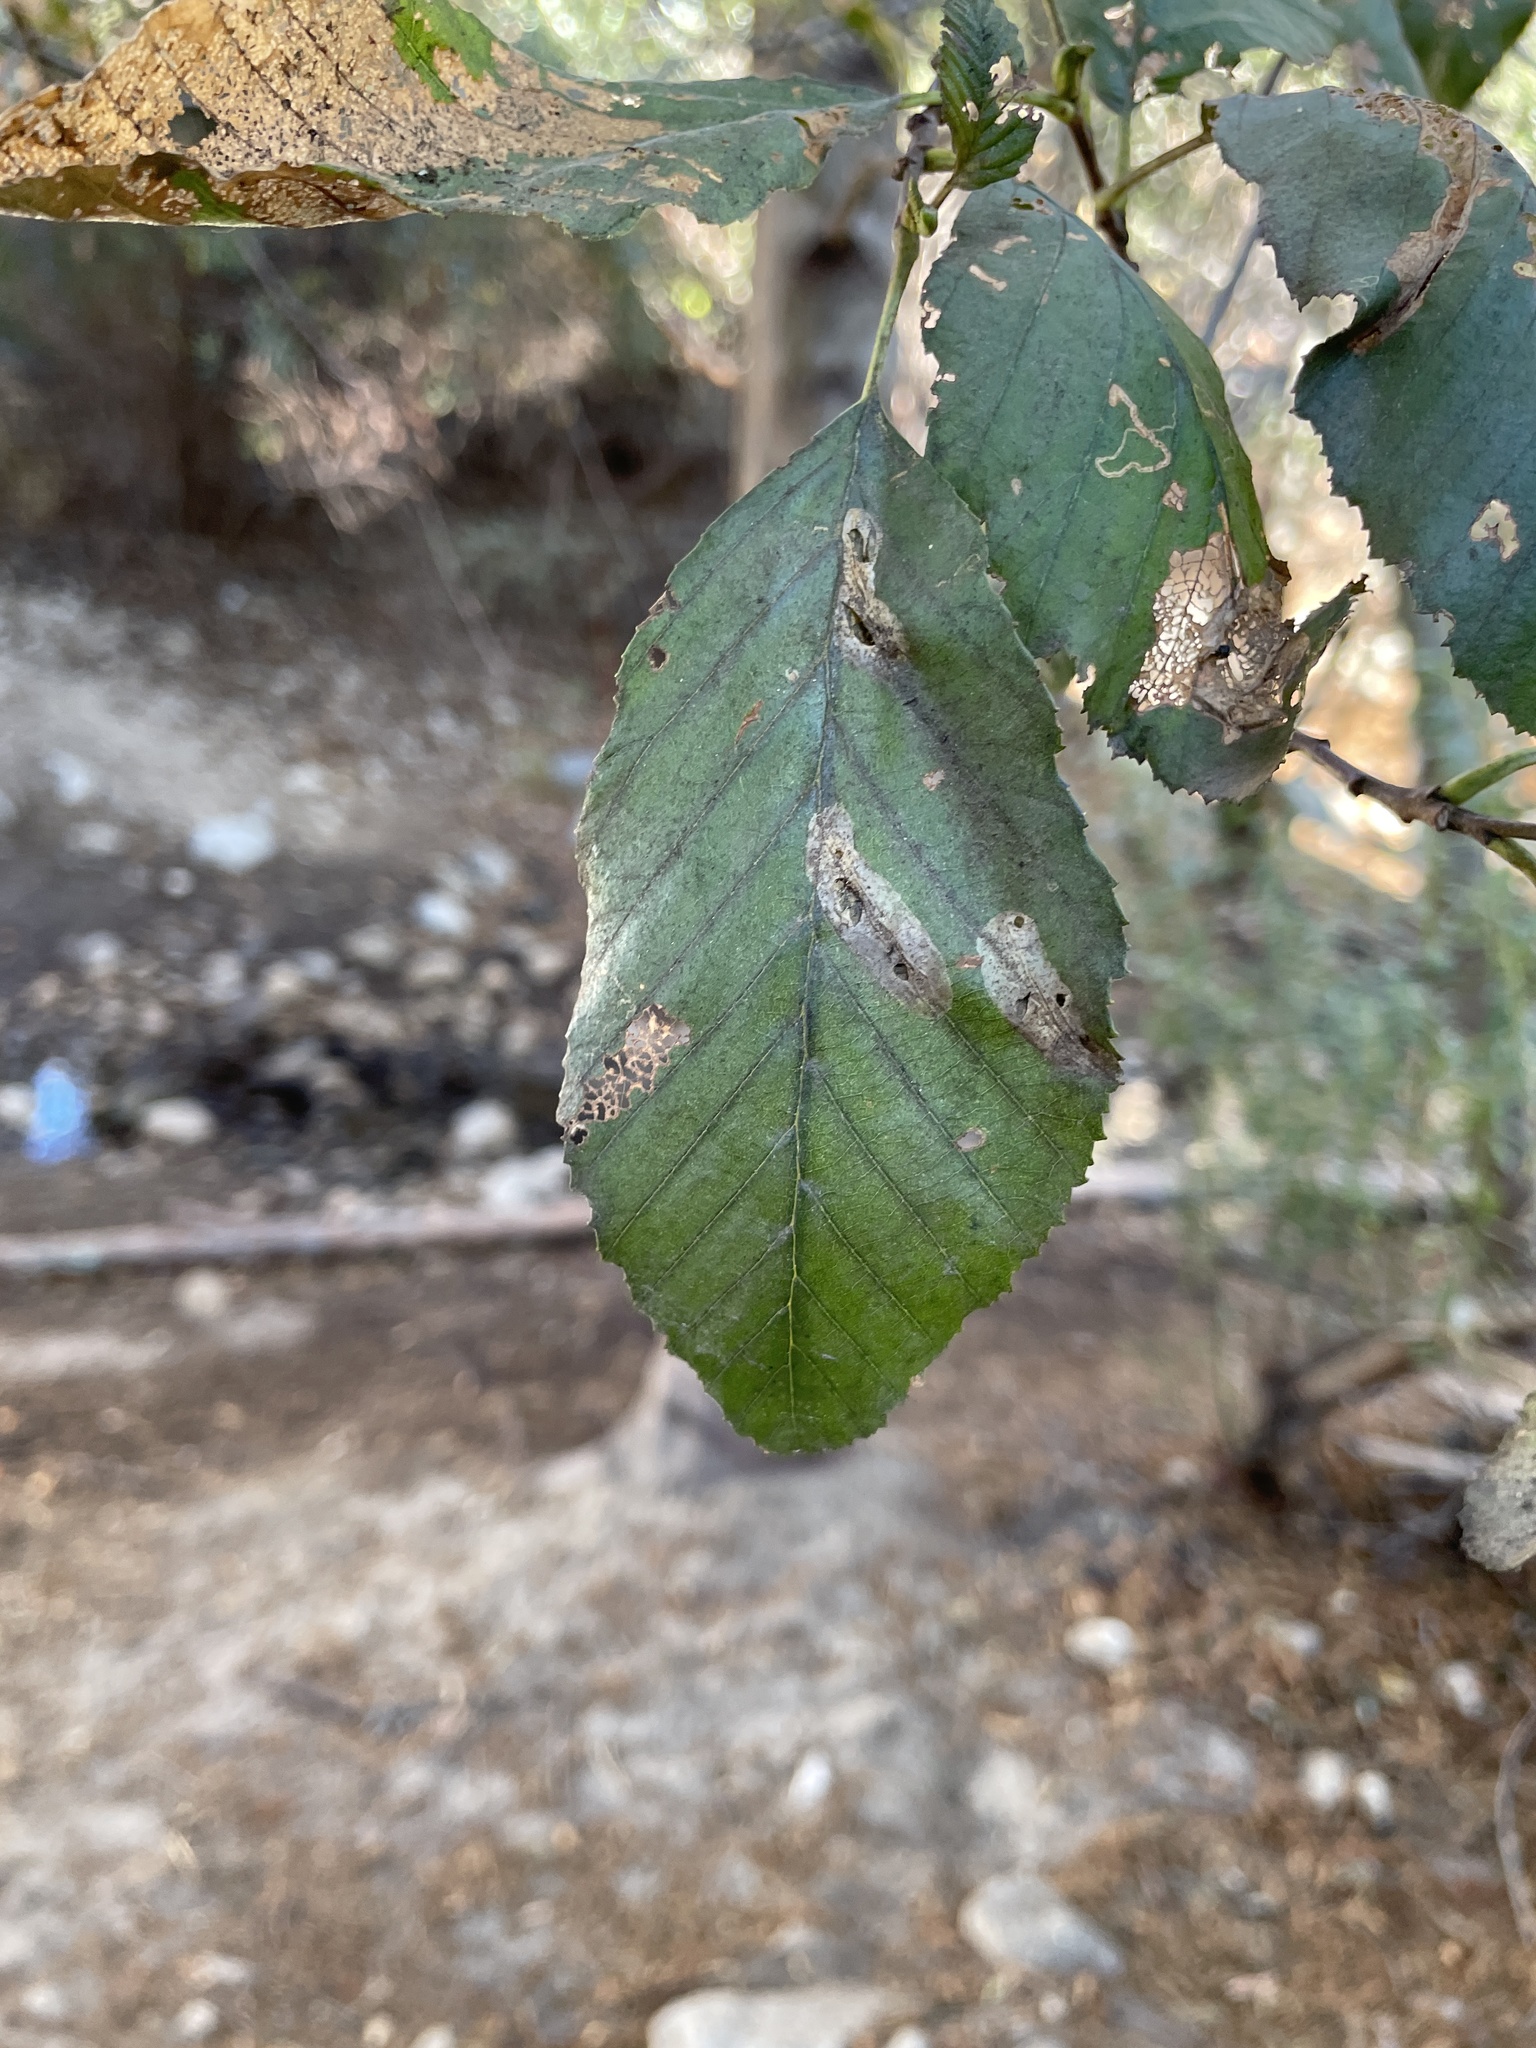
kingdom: Plantae
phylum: Tracheophyta
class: Magnoliopsida
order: Fagales
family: Betulaceae
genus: Alnus
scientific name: Alnus rhombifolia
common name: California alder
